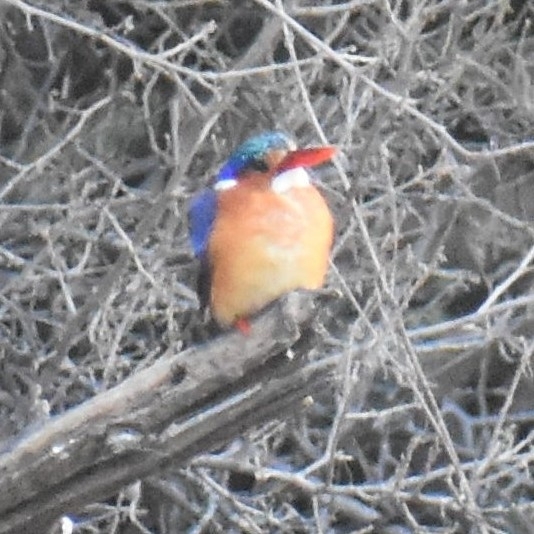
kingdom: Animalia
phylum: Chordata
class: Aves
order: Coraciiformes
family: Alcedinidae
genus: Corythornis
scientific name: Corythornis cristatus
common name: Malachite kingfisher
